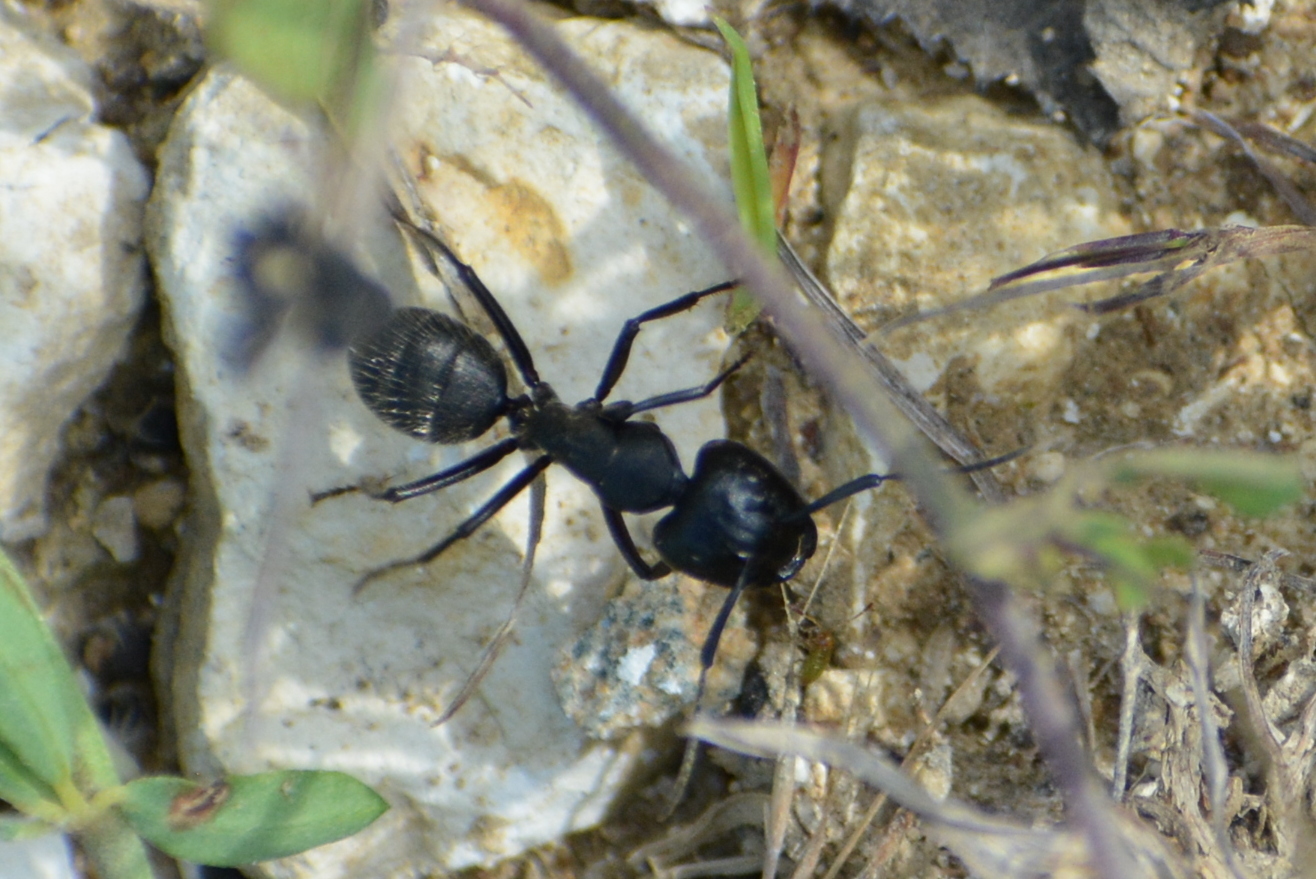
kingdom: Animalia
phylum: Arthropoda
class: Insecta
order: Hymenoptera
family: Formicidae
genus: Camponotus
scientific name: Camponotus vagus
